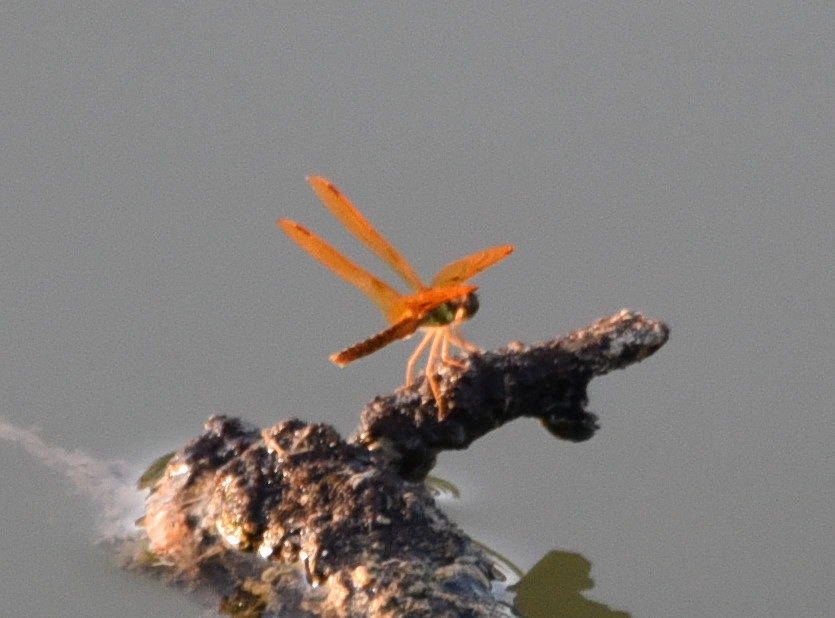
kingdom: Animalia
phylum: Arthropoda
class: Insecta
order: Odonata
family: Libellulidae
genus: Perithemis
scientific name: Perithemis tenera
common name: Eastern amberwing
